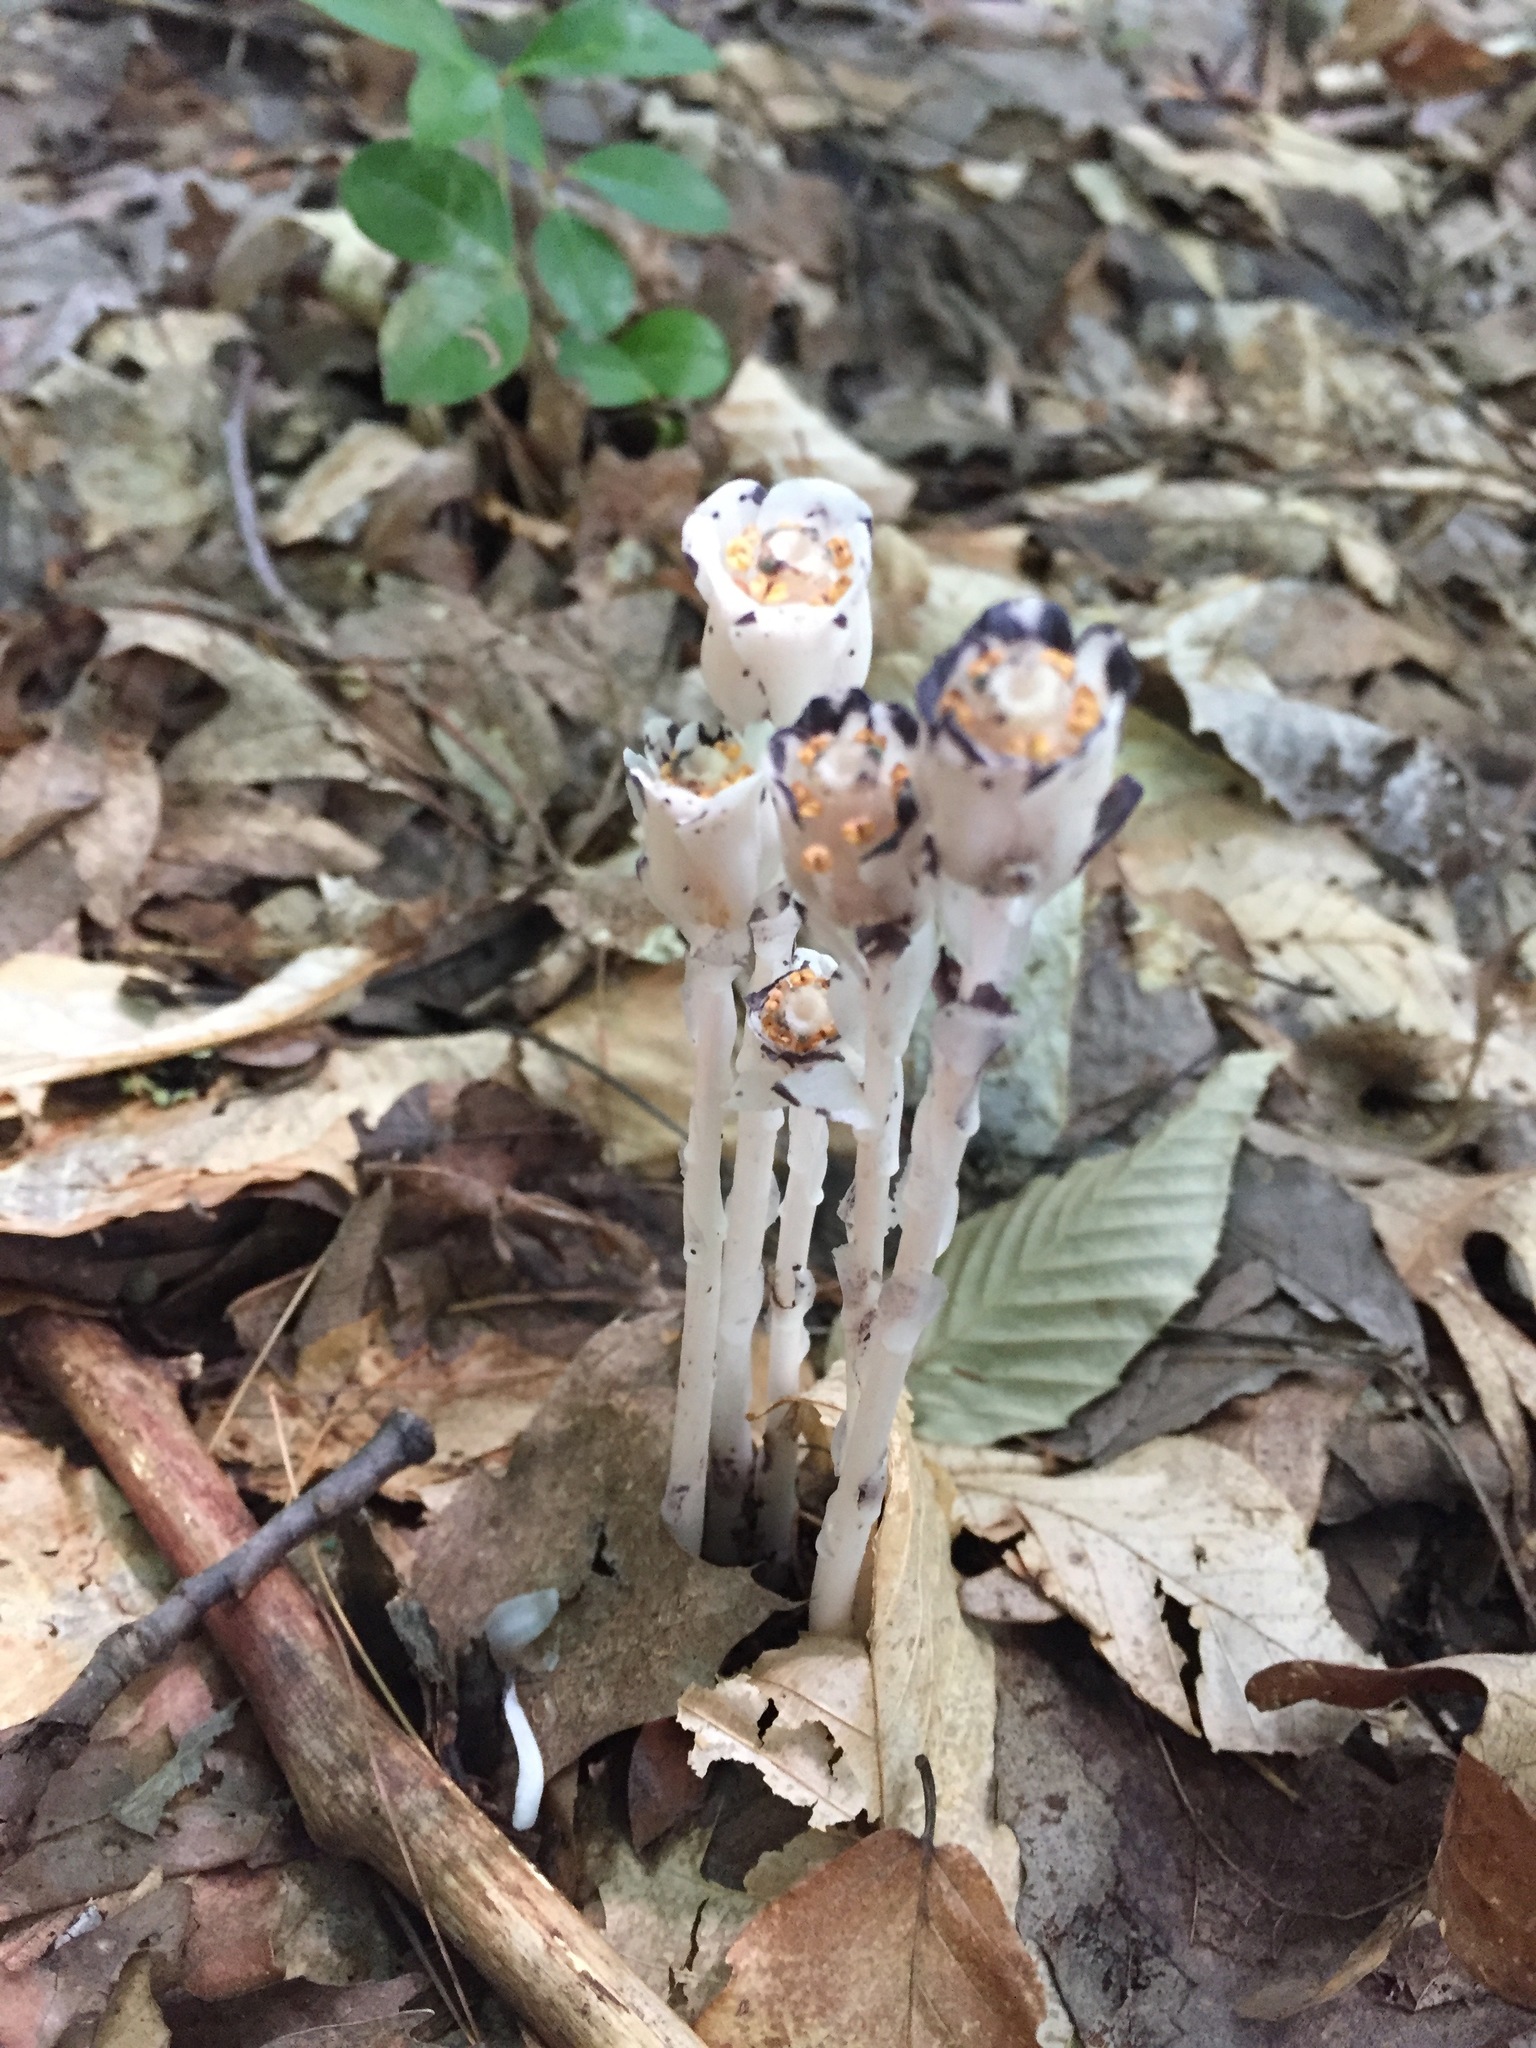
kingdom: Plantae
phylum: Tracheophyta
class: Magnoliopsida
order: Ericales
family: Ericaceae
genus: Monotropa
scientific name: Monotropa uniflora
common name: Convulsion root
